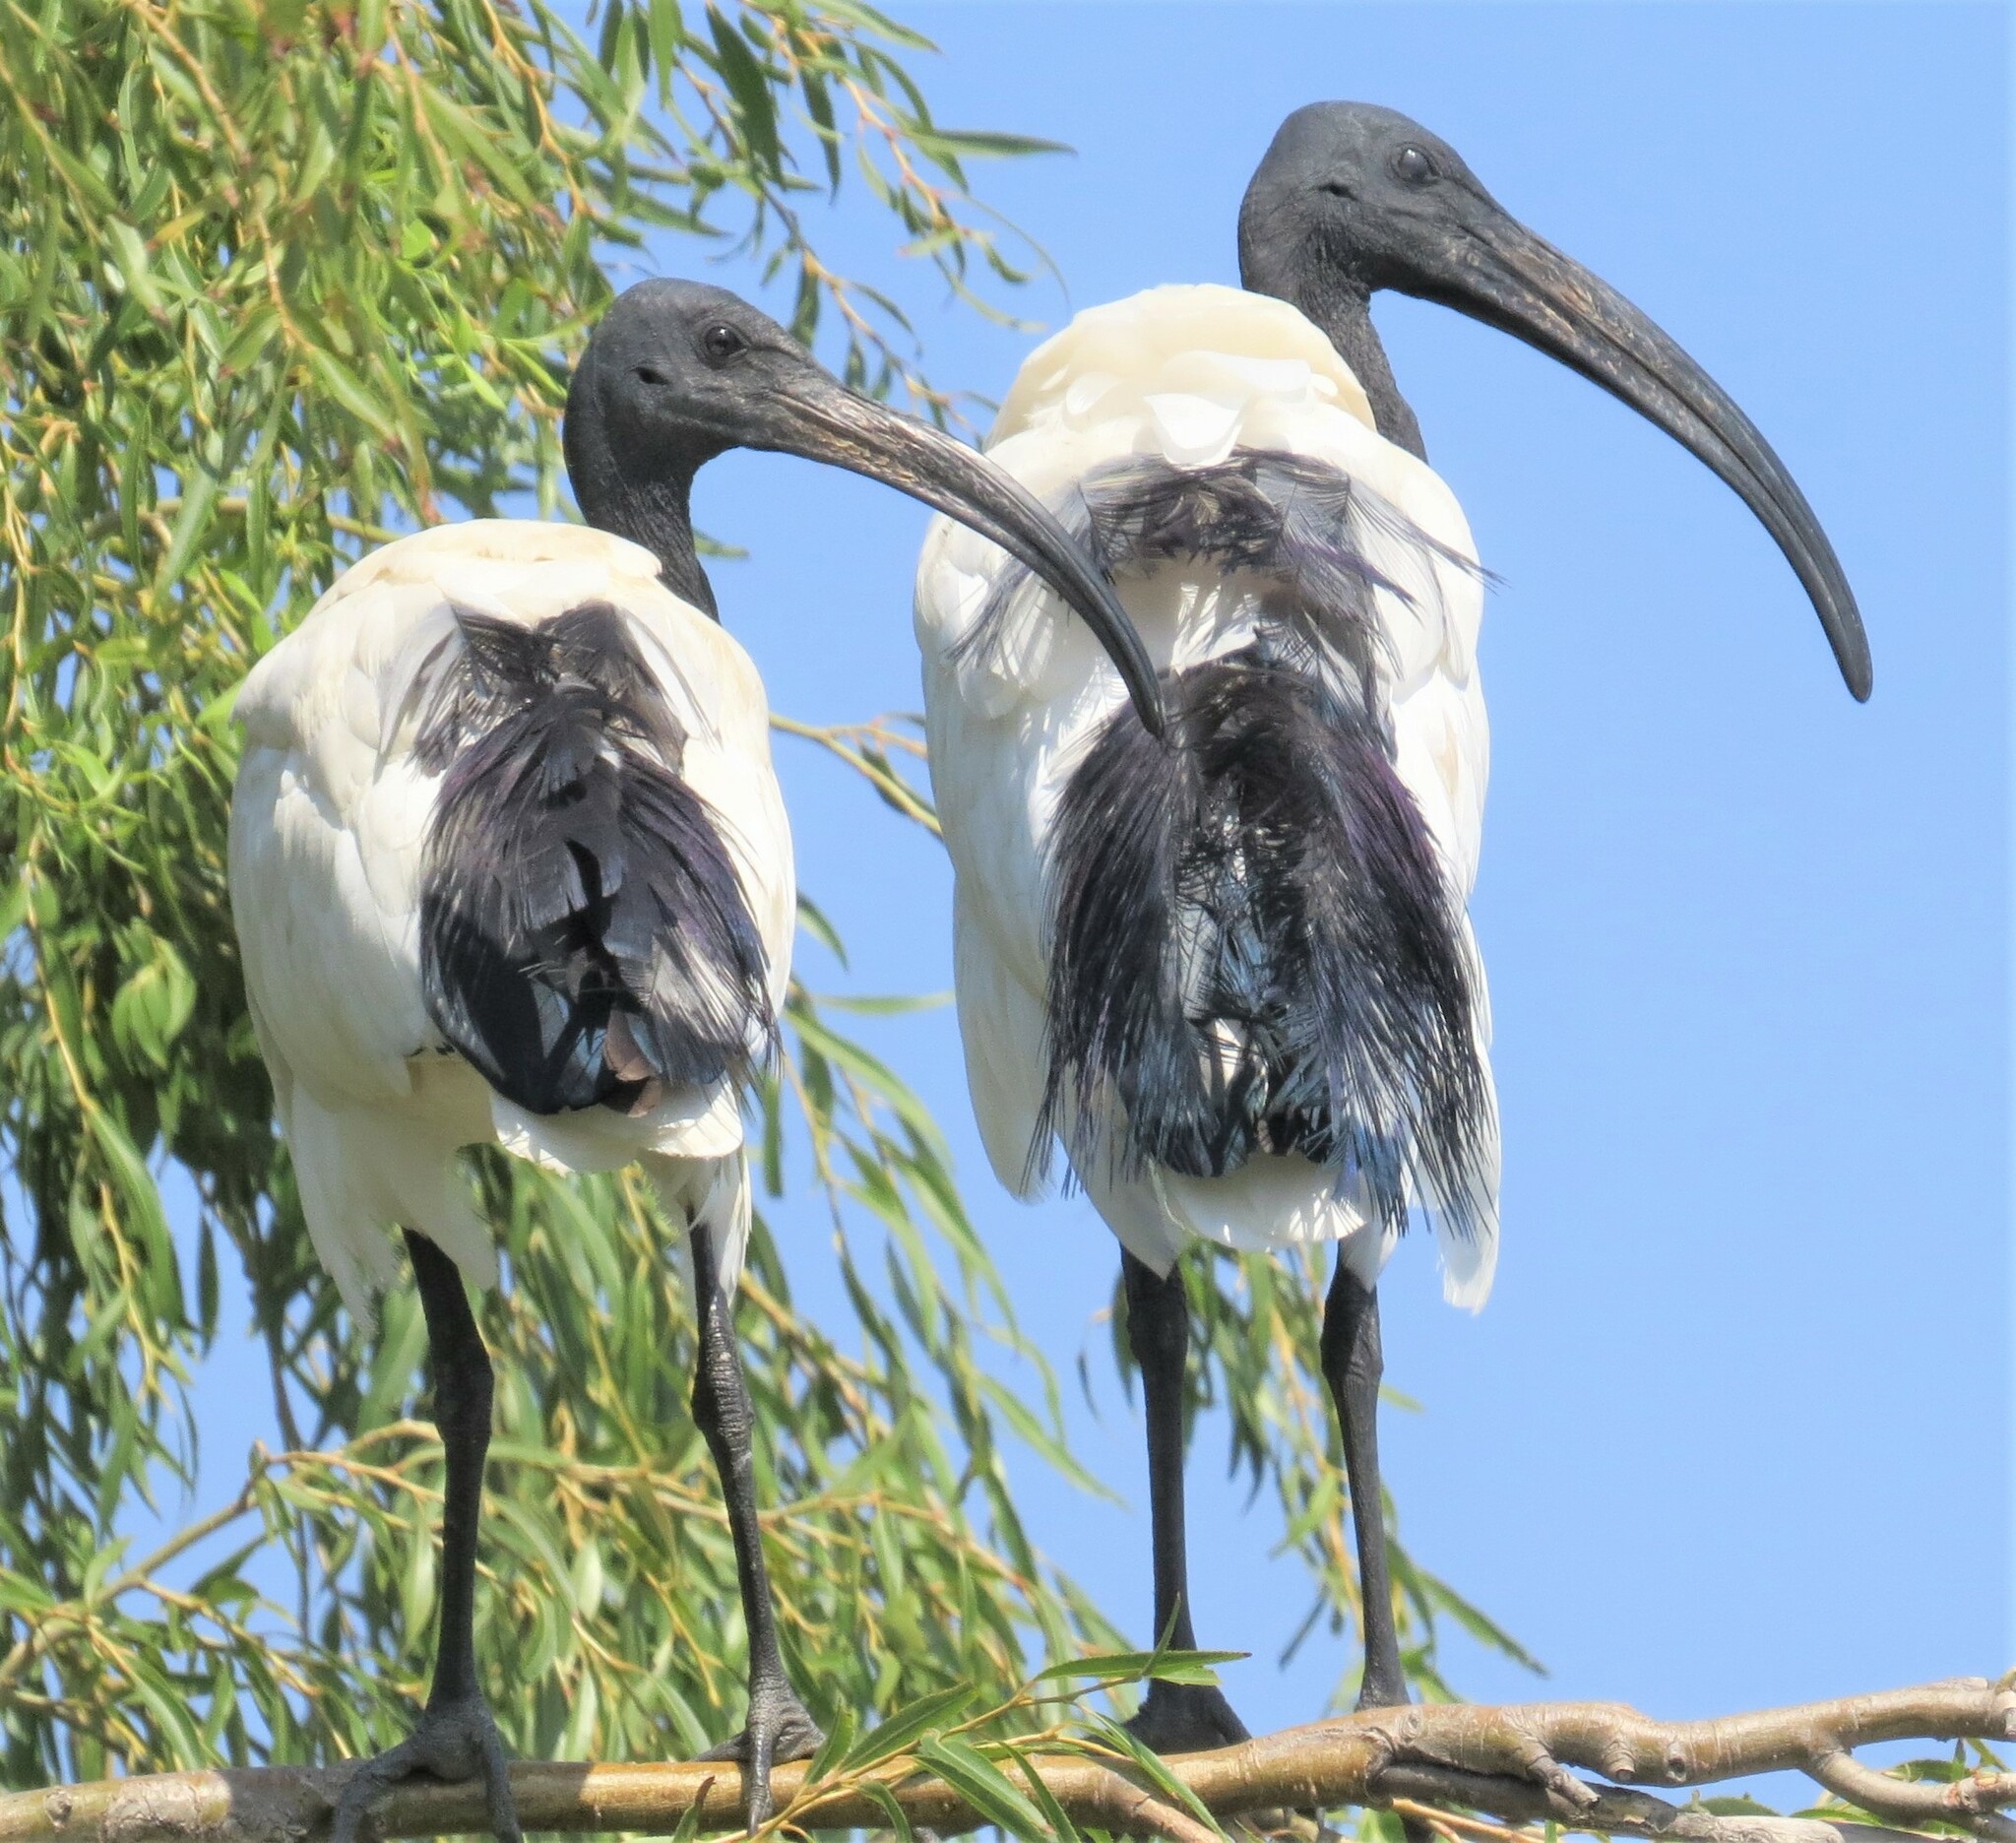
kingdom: Animalia
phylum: Chordata
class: Aves
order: Pelecaniformes
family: Threskiornithidae
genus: Threskiornis
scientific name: Threskiornis aethiopicus
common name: Sacred ibis
